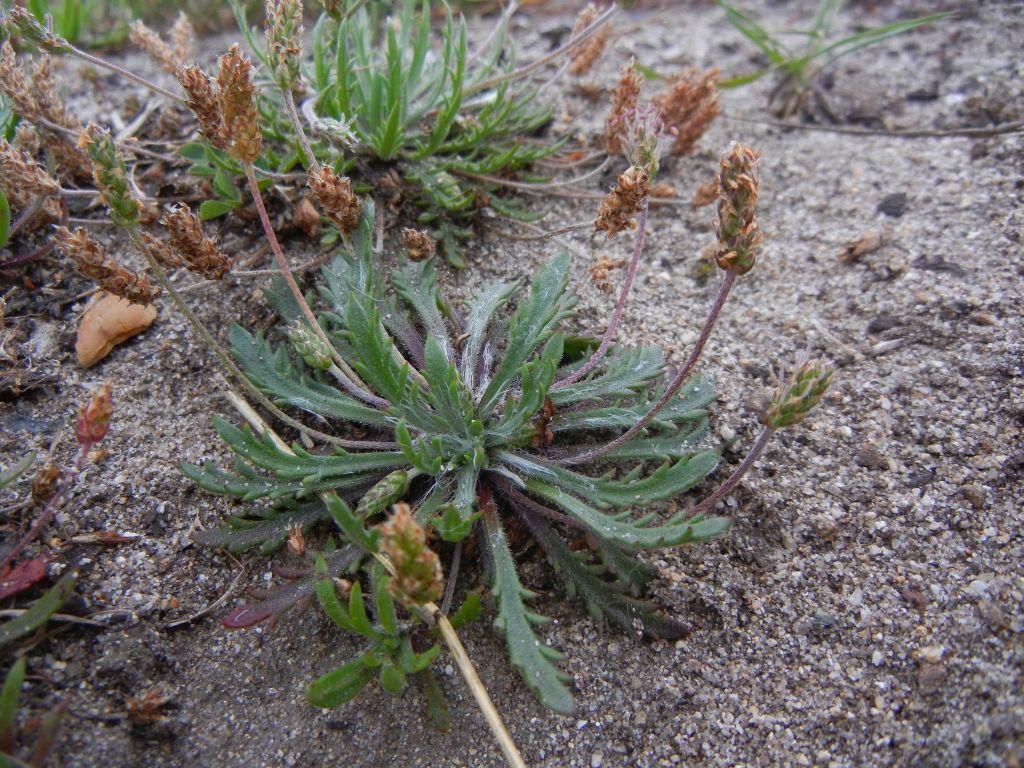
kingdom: Plantae
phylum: Tracheophyta
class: Magnoliopsida
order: Lamiales
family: Plantaginaceae
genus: Plantago
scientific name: Plantago coronopus
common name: Buck's-horn plantain
